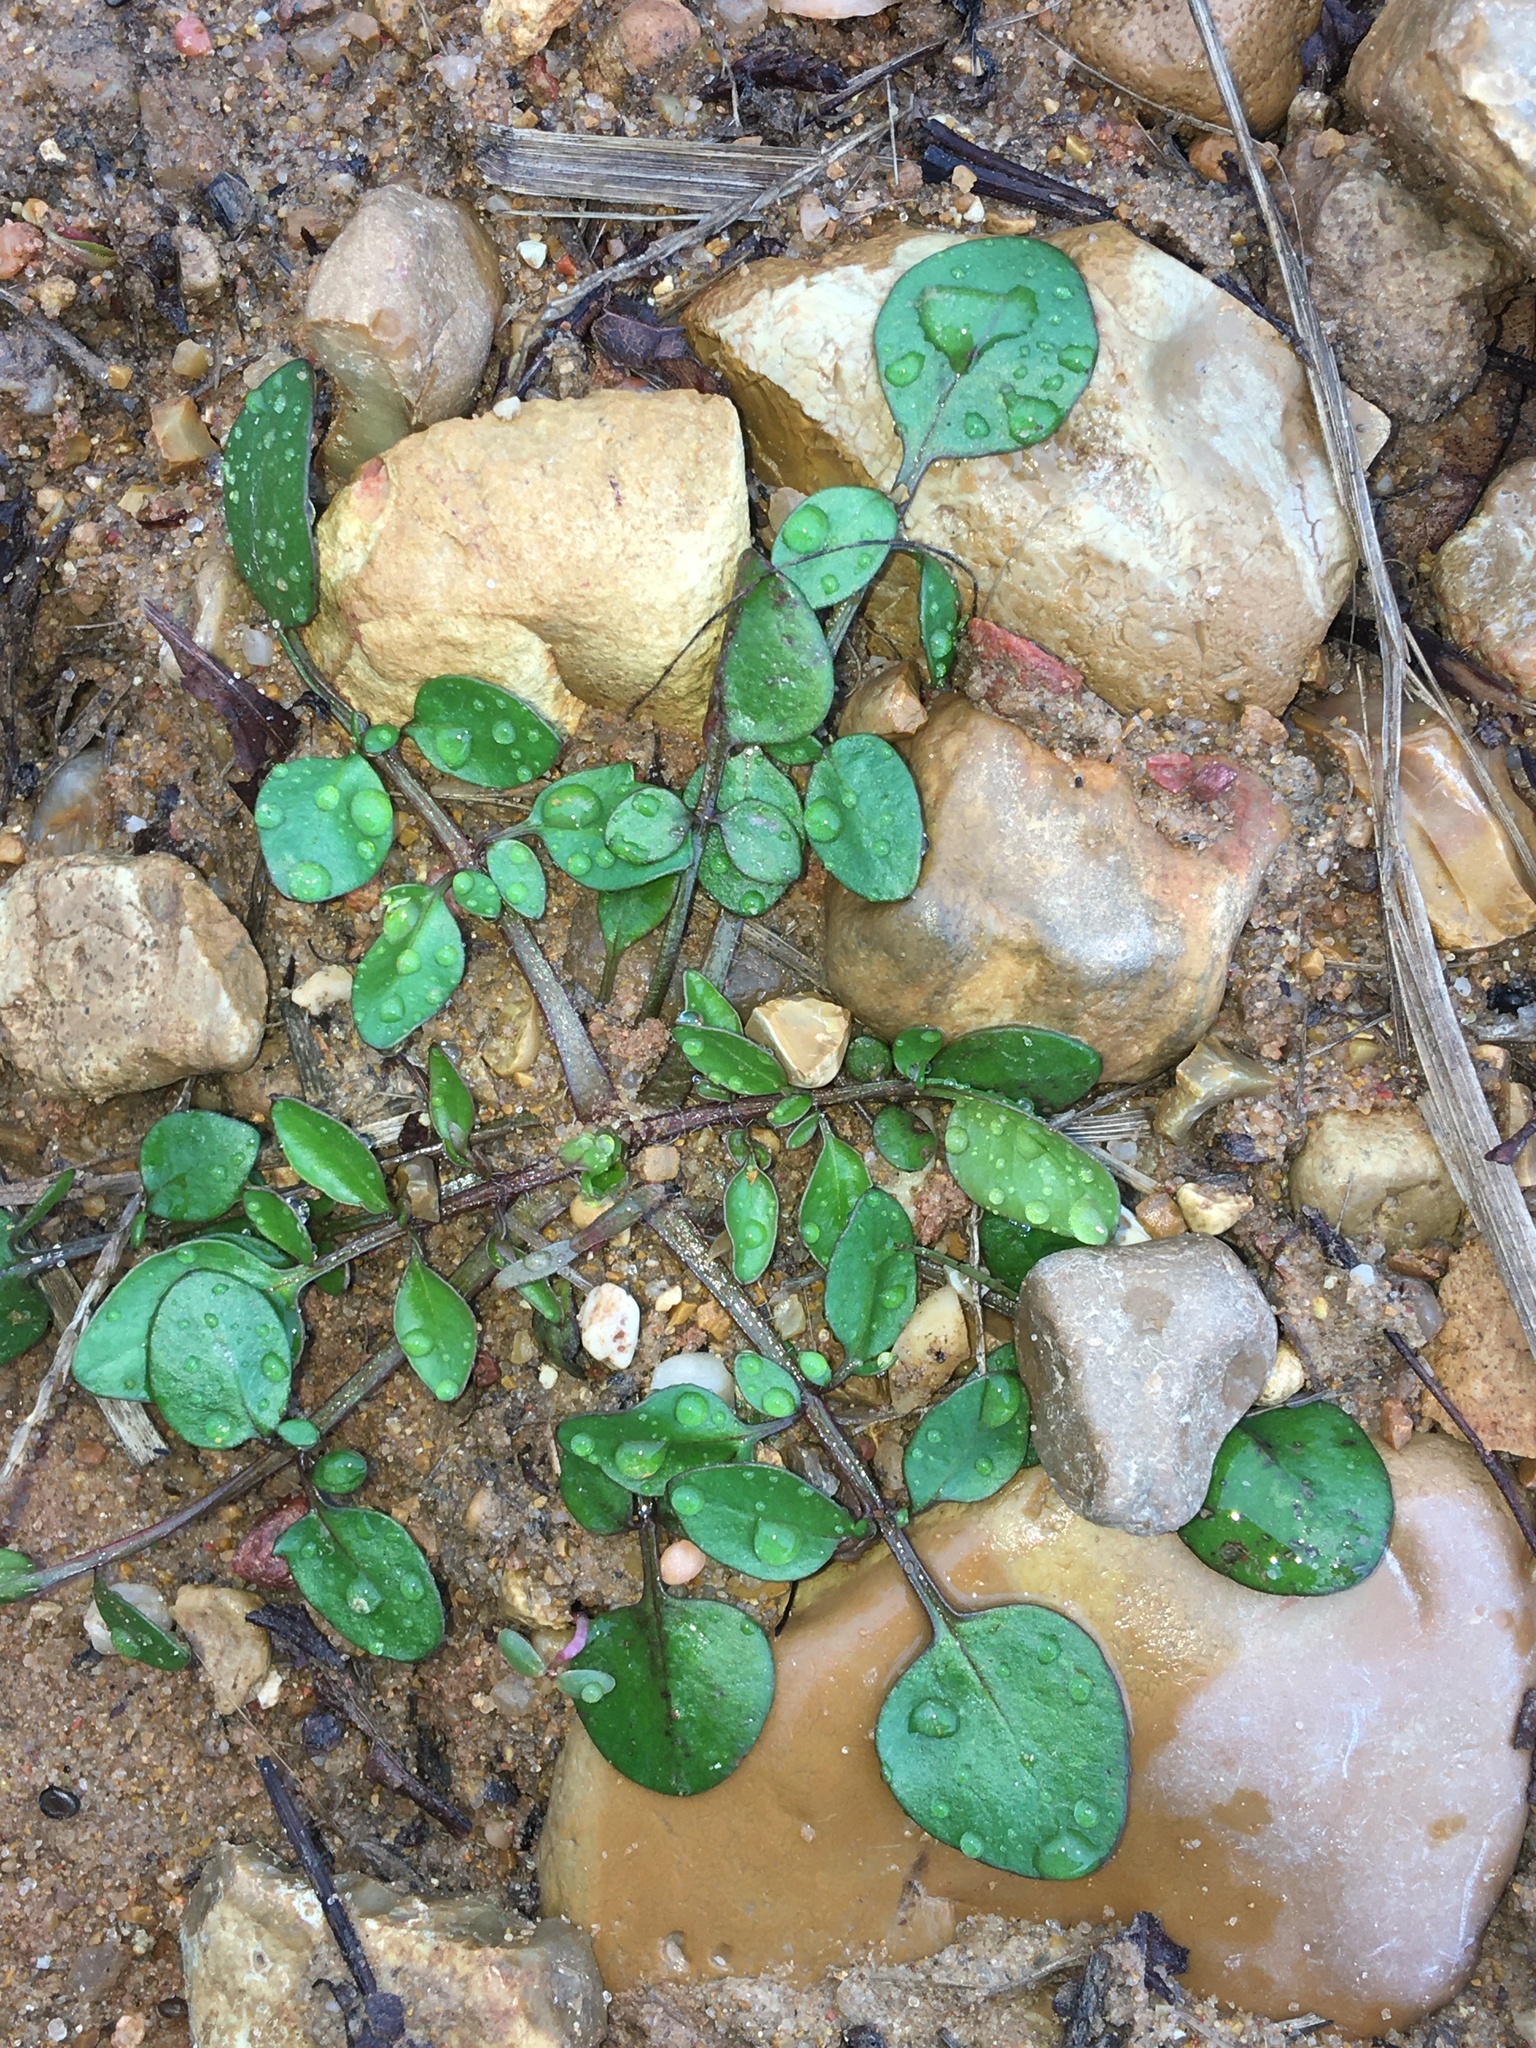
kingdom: Plantae
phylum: Tracheophyta
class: Magnoliopsida
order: Asterales
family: Asteraceae
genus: Bidens
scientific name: Bidens connata
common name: London bur-marigold
